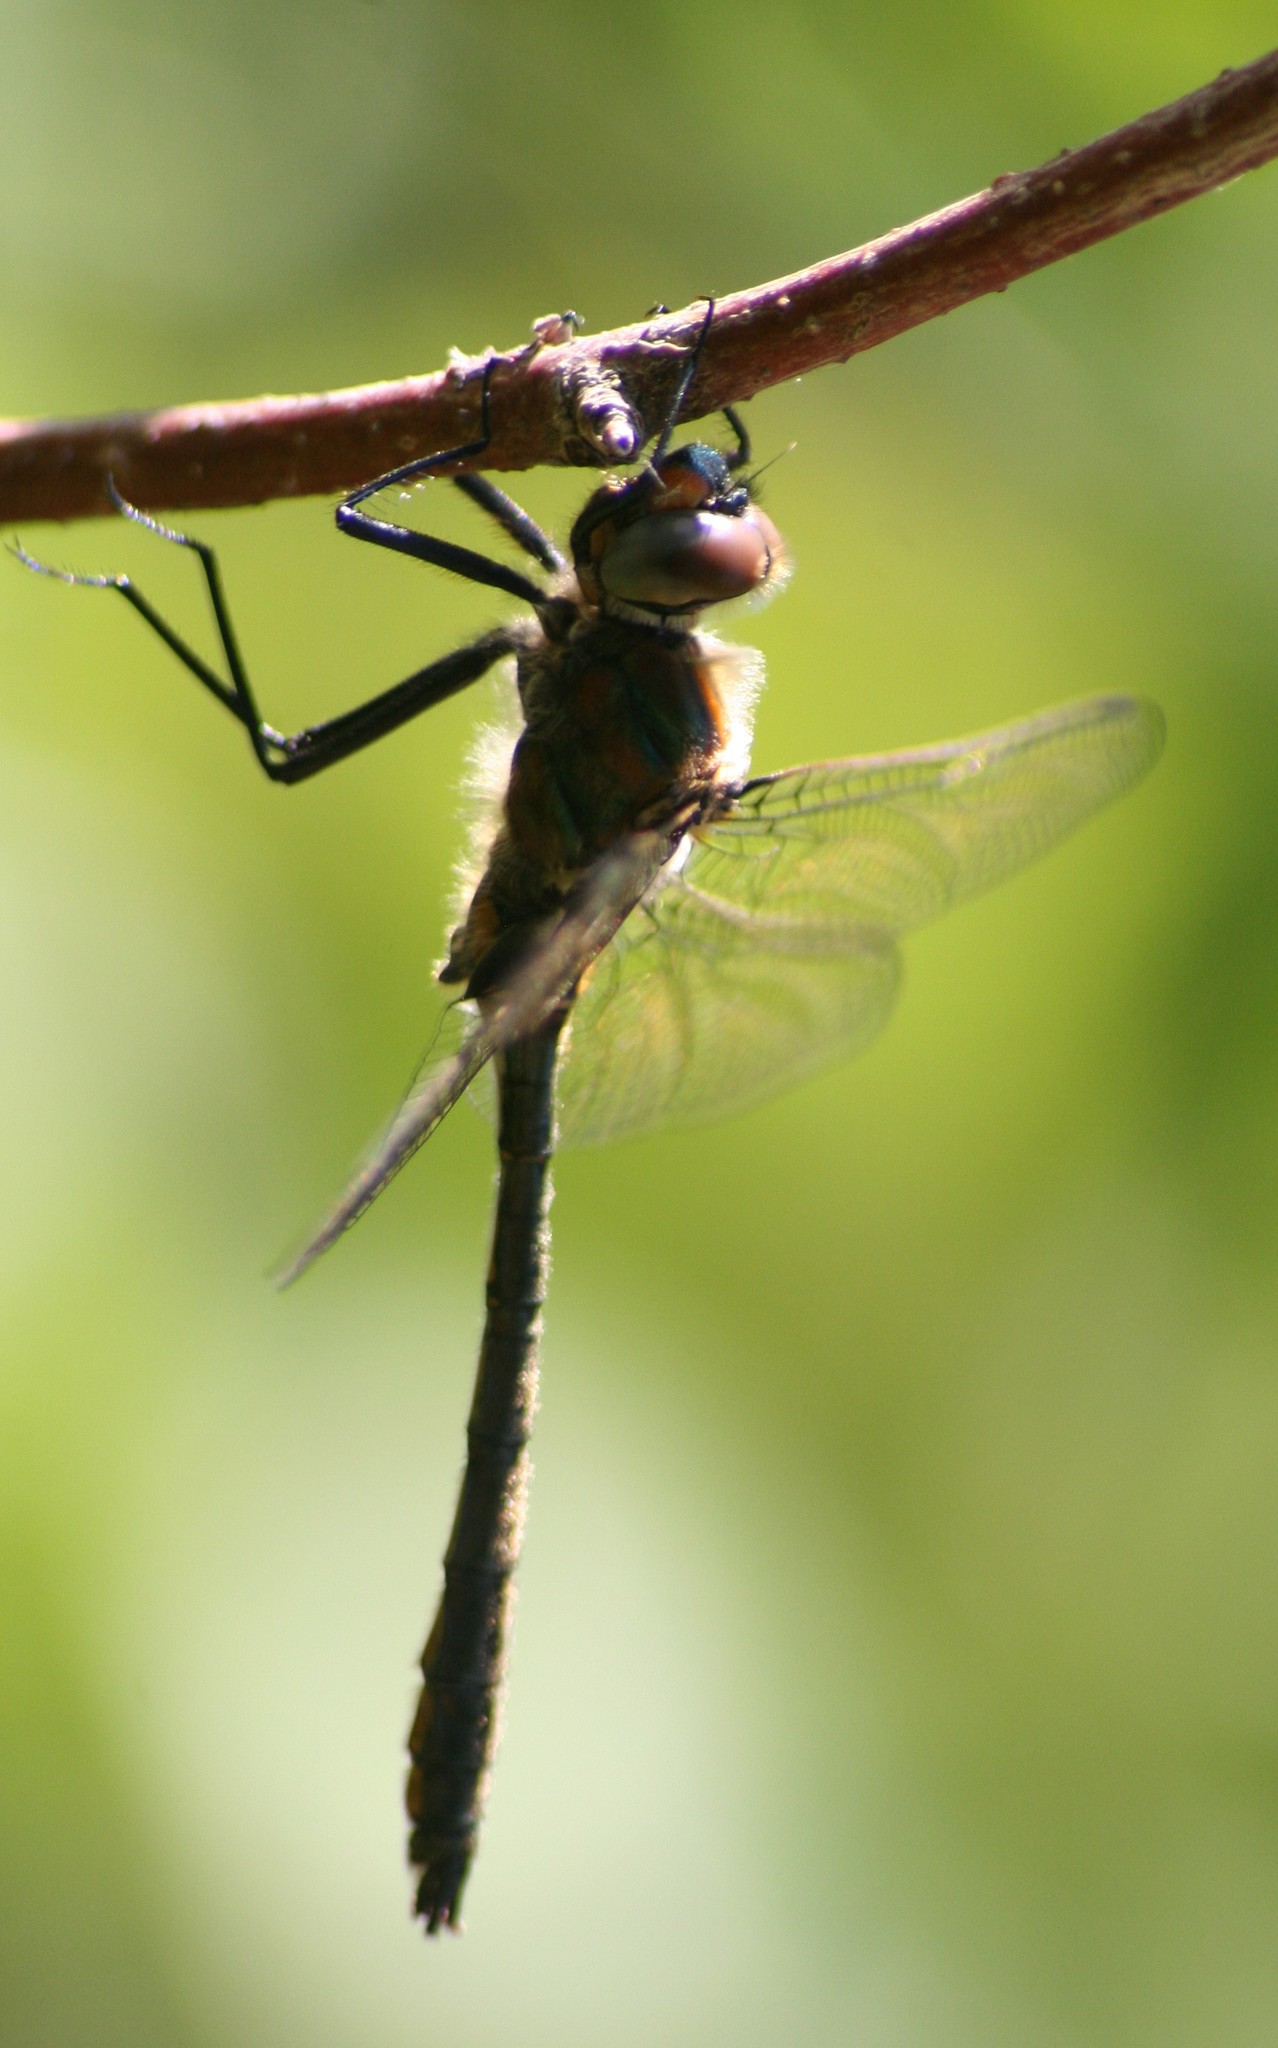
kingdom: Animalia
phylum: Arthropoda
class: Insecta
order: Odonata
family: Corduliidae
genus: Cordulia
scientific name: Cordulia shurtleffii
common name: American emerald
